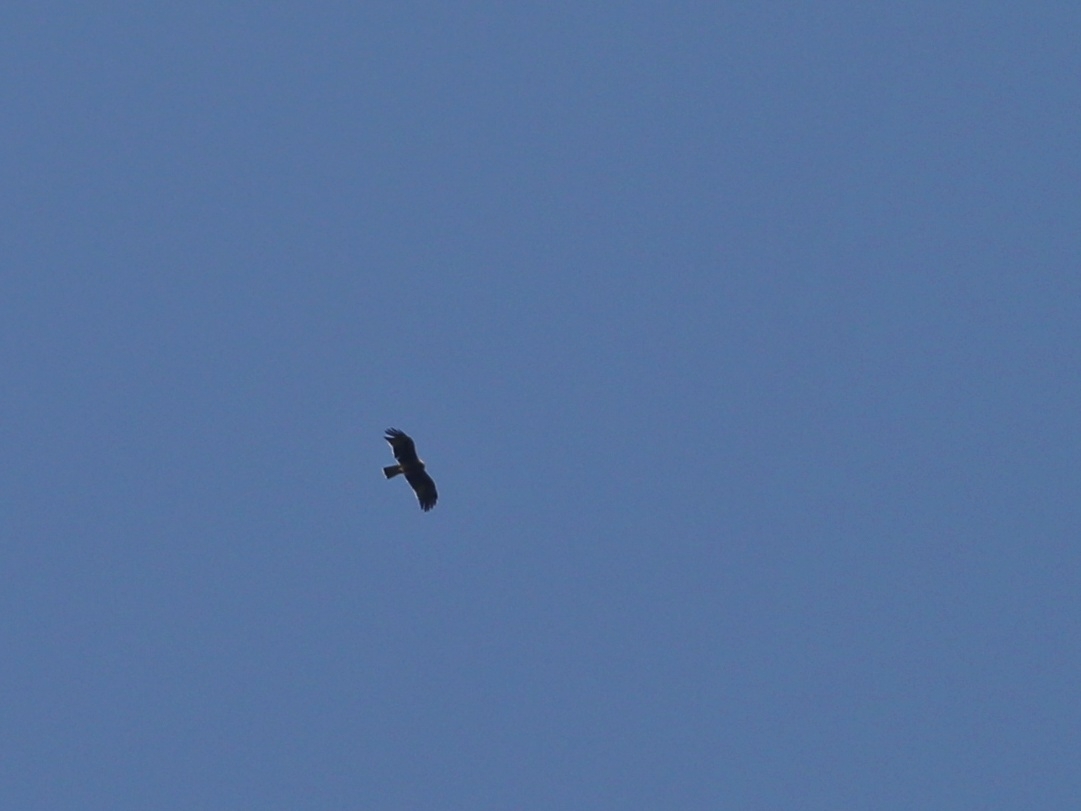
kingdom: Animalia
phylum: Chordata
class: Aves
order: Accipitriformes
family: Accipitridae
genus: Hieraaetus
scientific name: Hieraaetus pennatus
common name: Booted eagle
